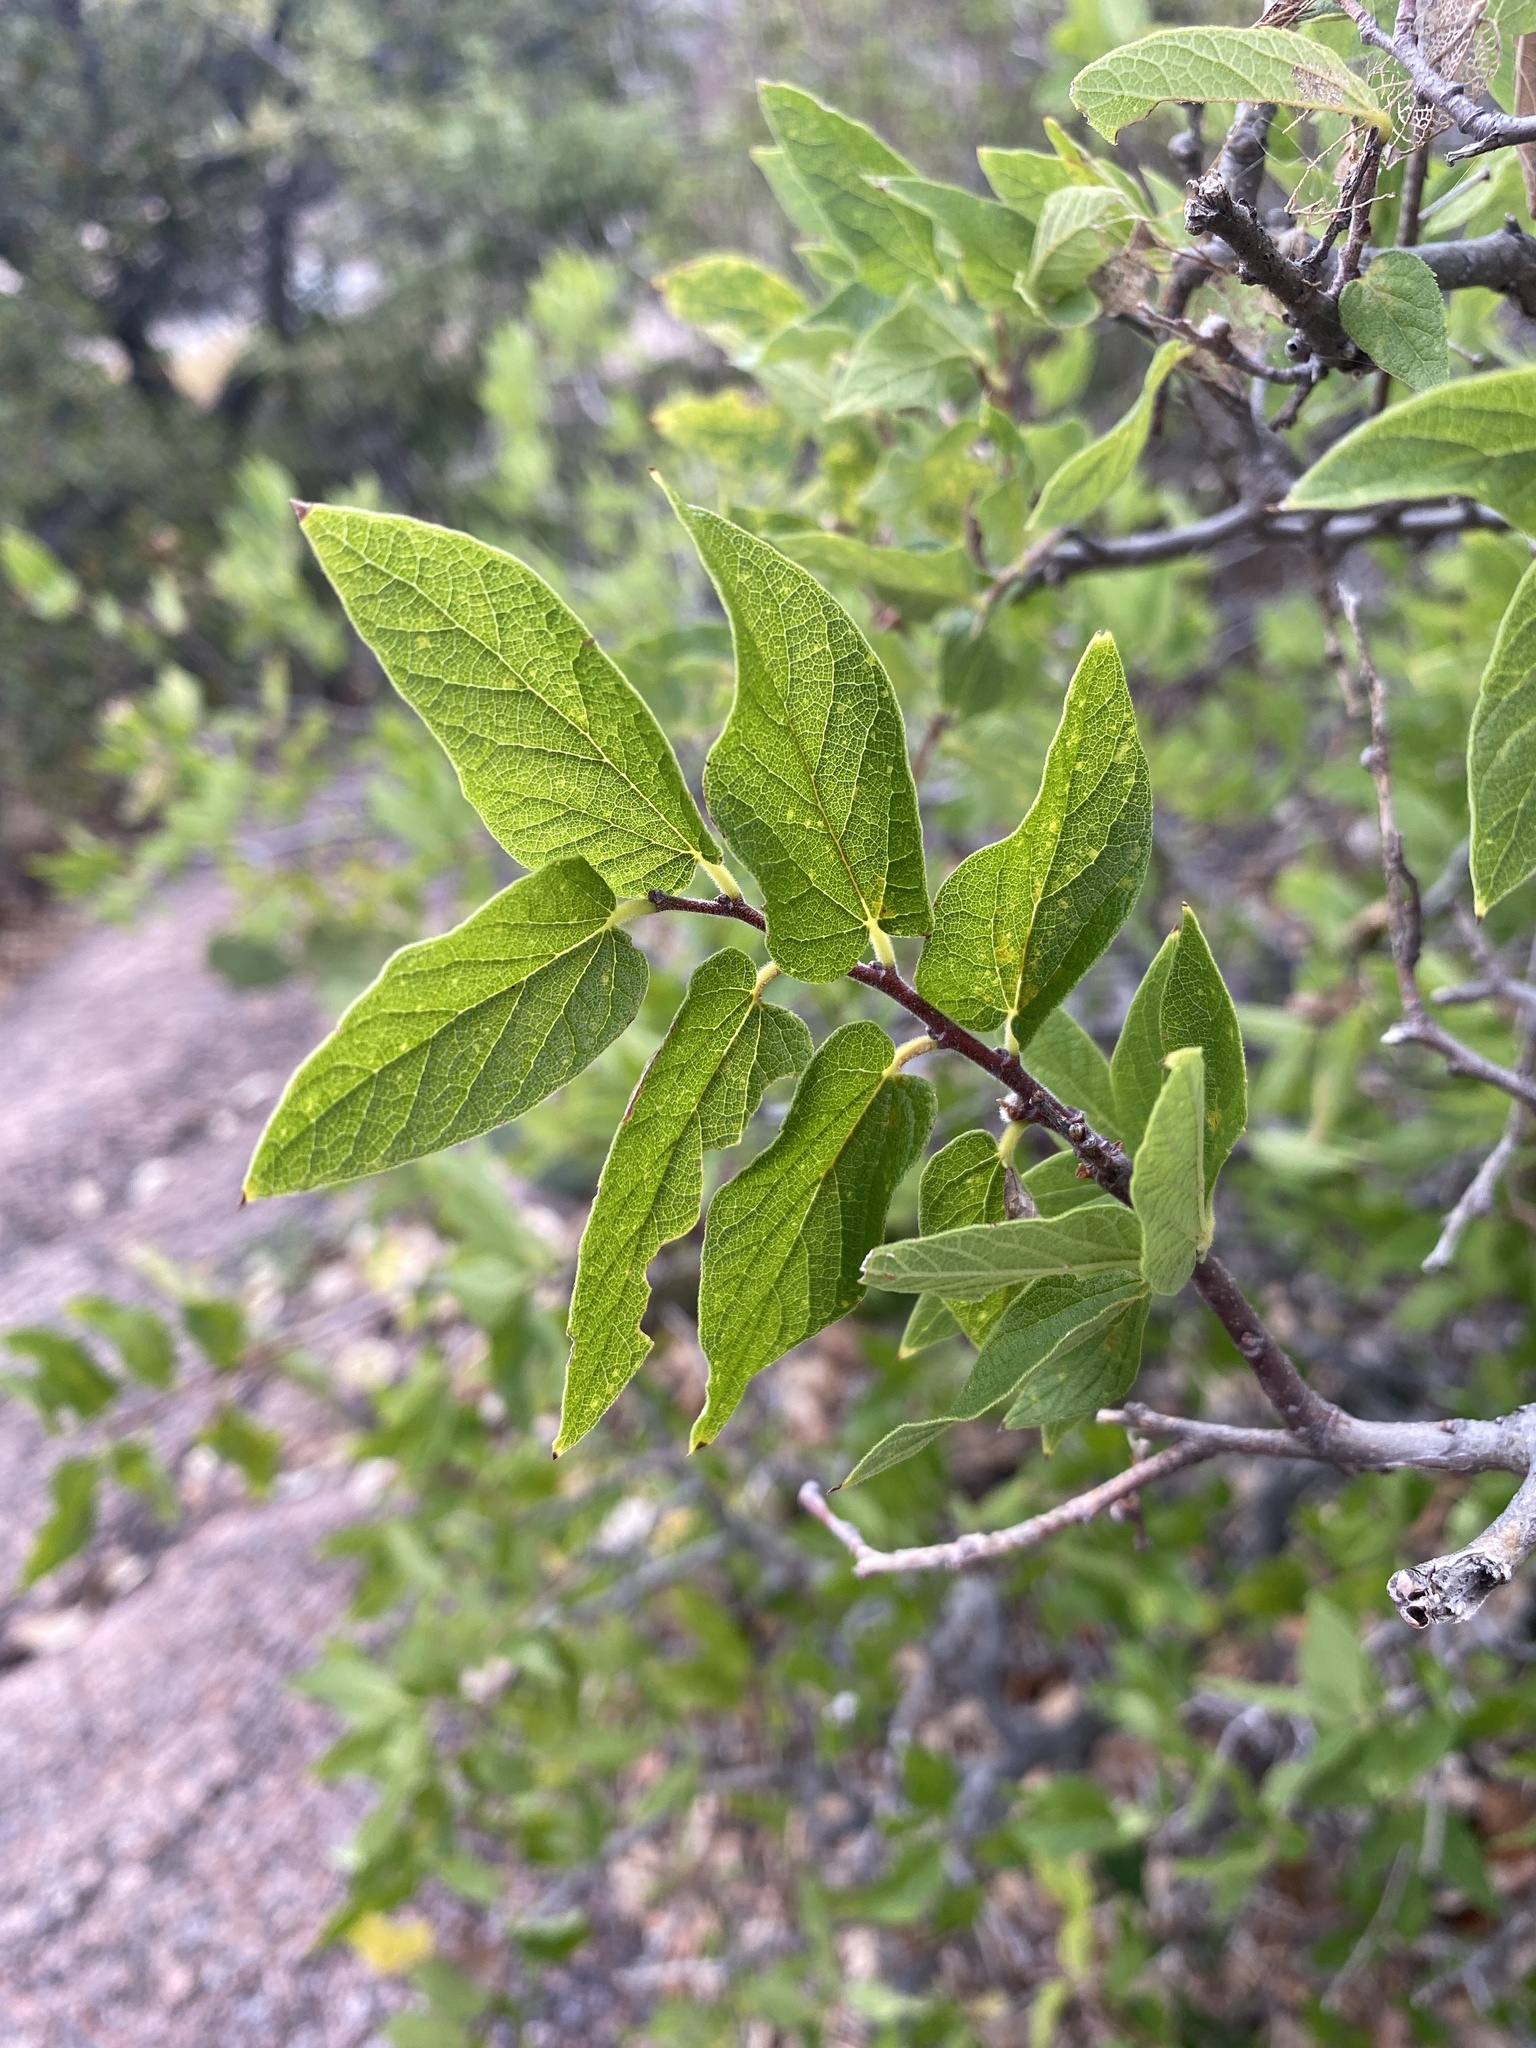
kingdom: Plantae
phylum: Tracheophyta
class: Magnoliopsida
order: Rosales
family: Cannabaceae
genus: Celtis
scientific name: Celtis reticulata
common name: Netleaf hackberry
